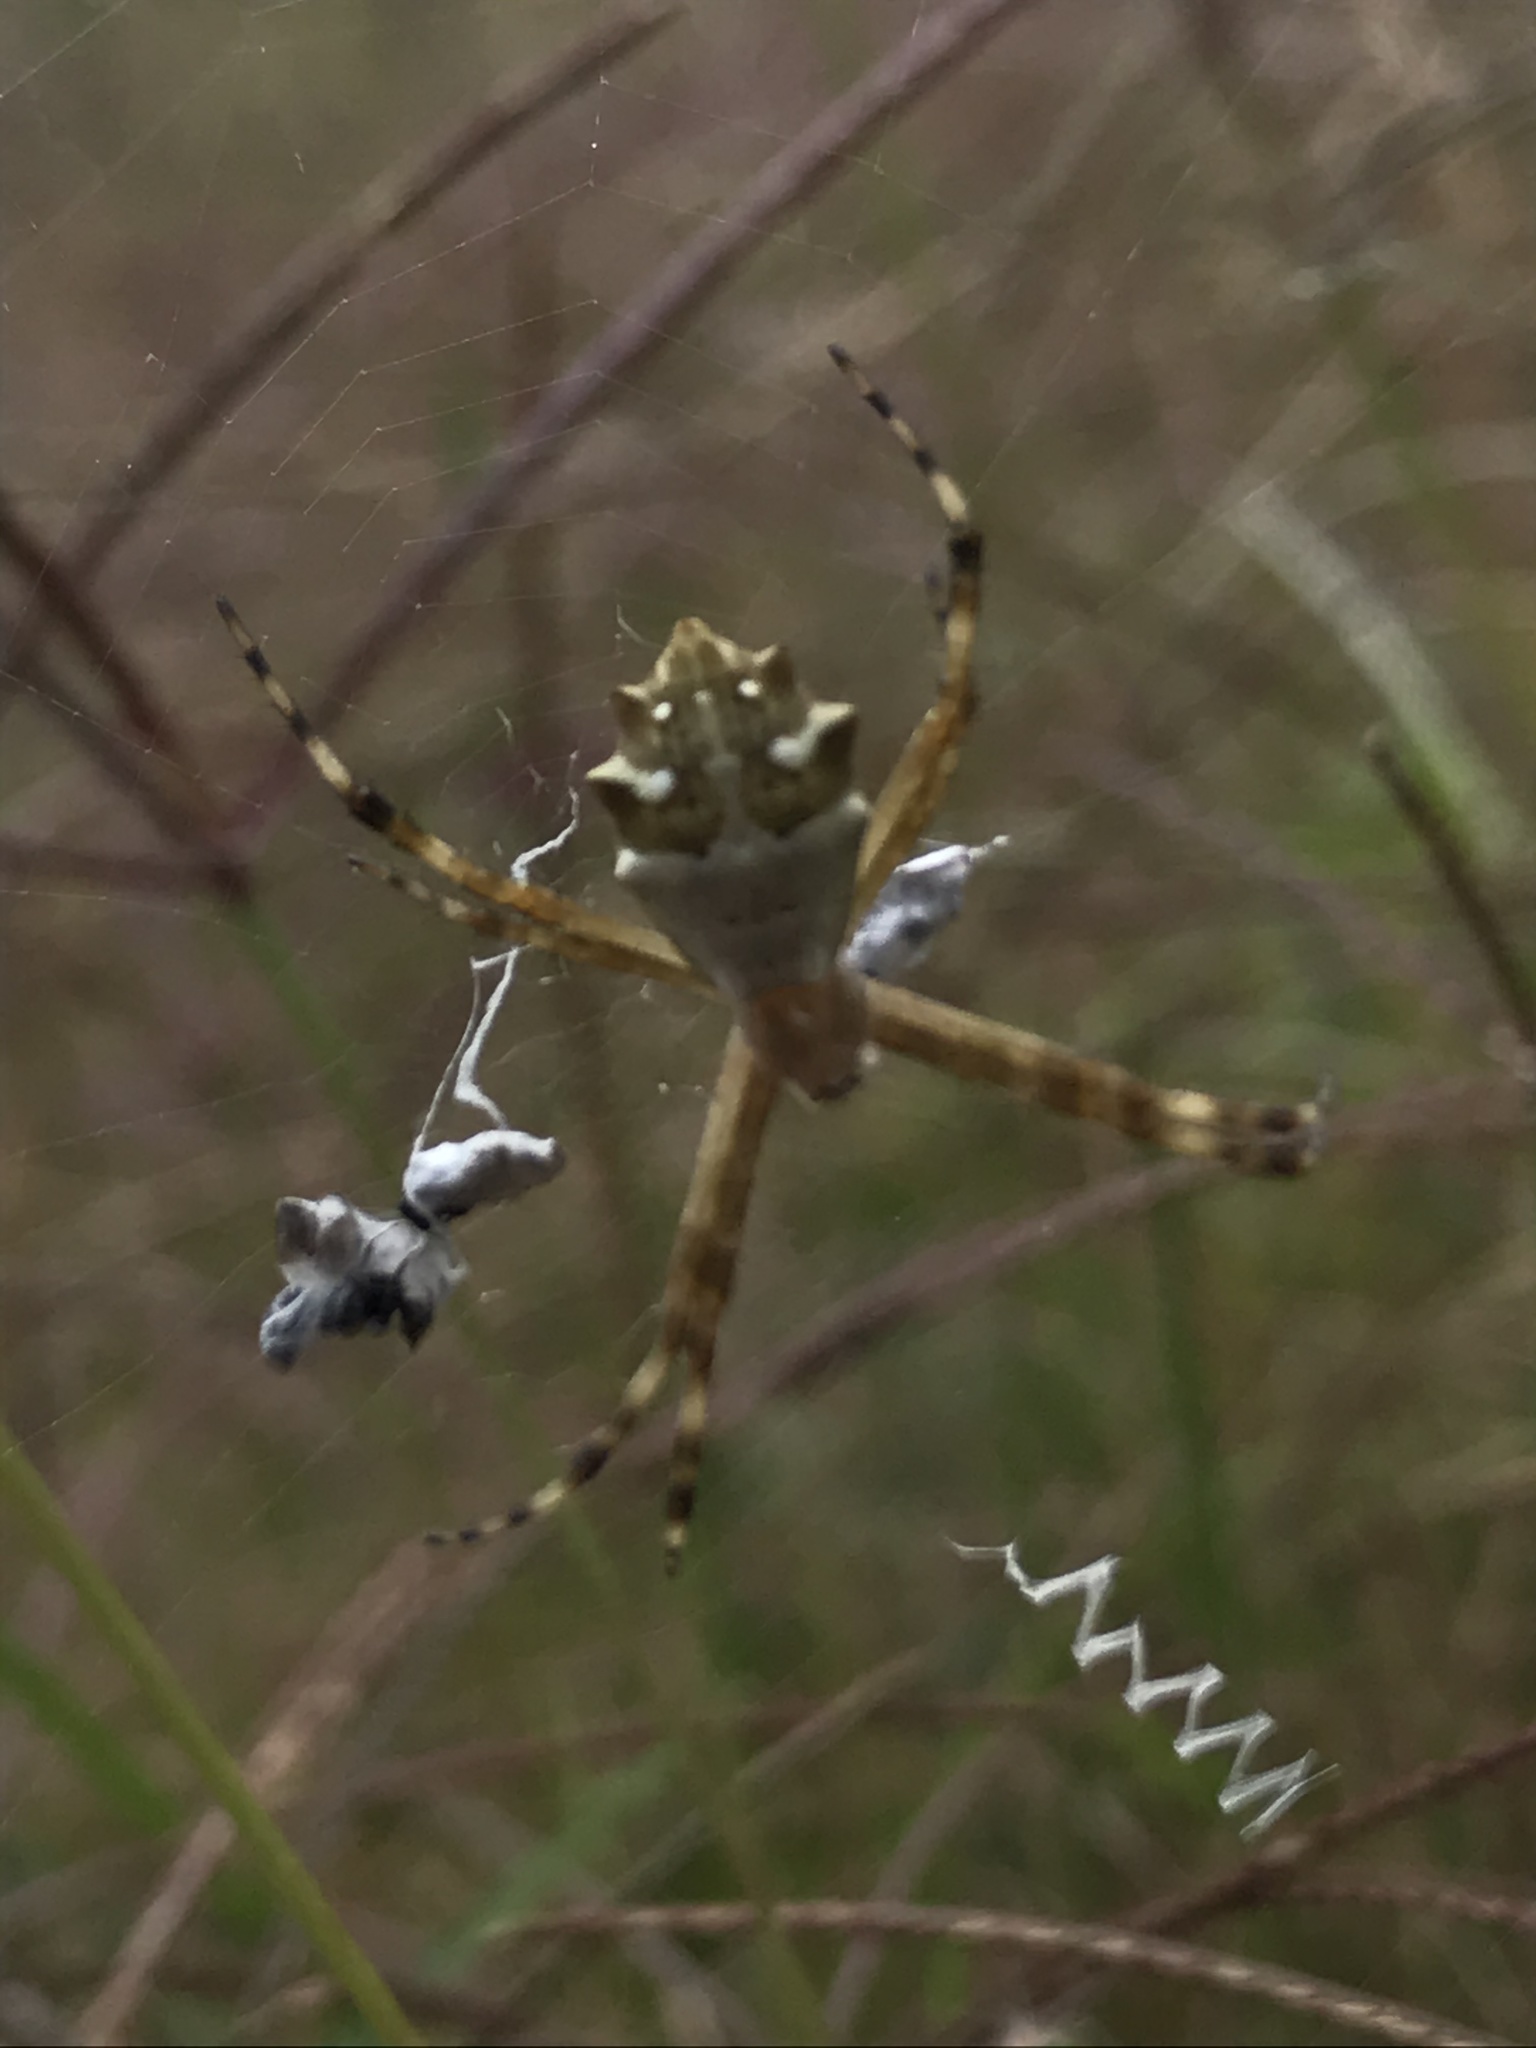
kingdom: Animalia
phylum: Arthropoda
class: Arachnida
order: Araneae
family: Araneidae
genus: Argiope
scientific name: Argiope argentata
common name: Orb weavers
